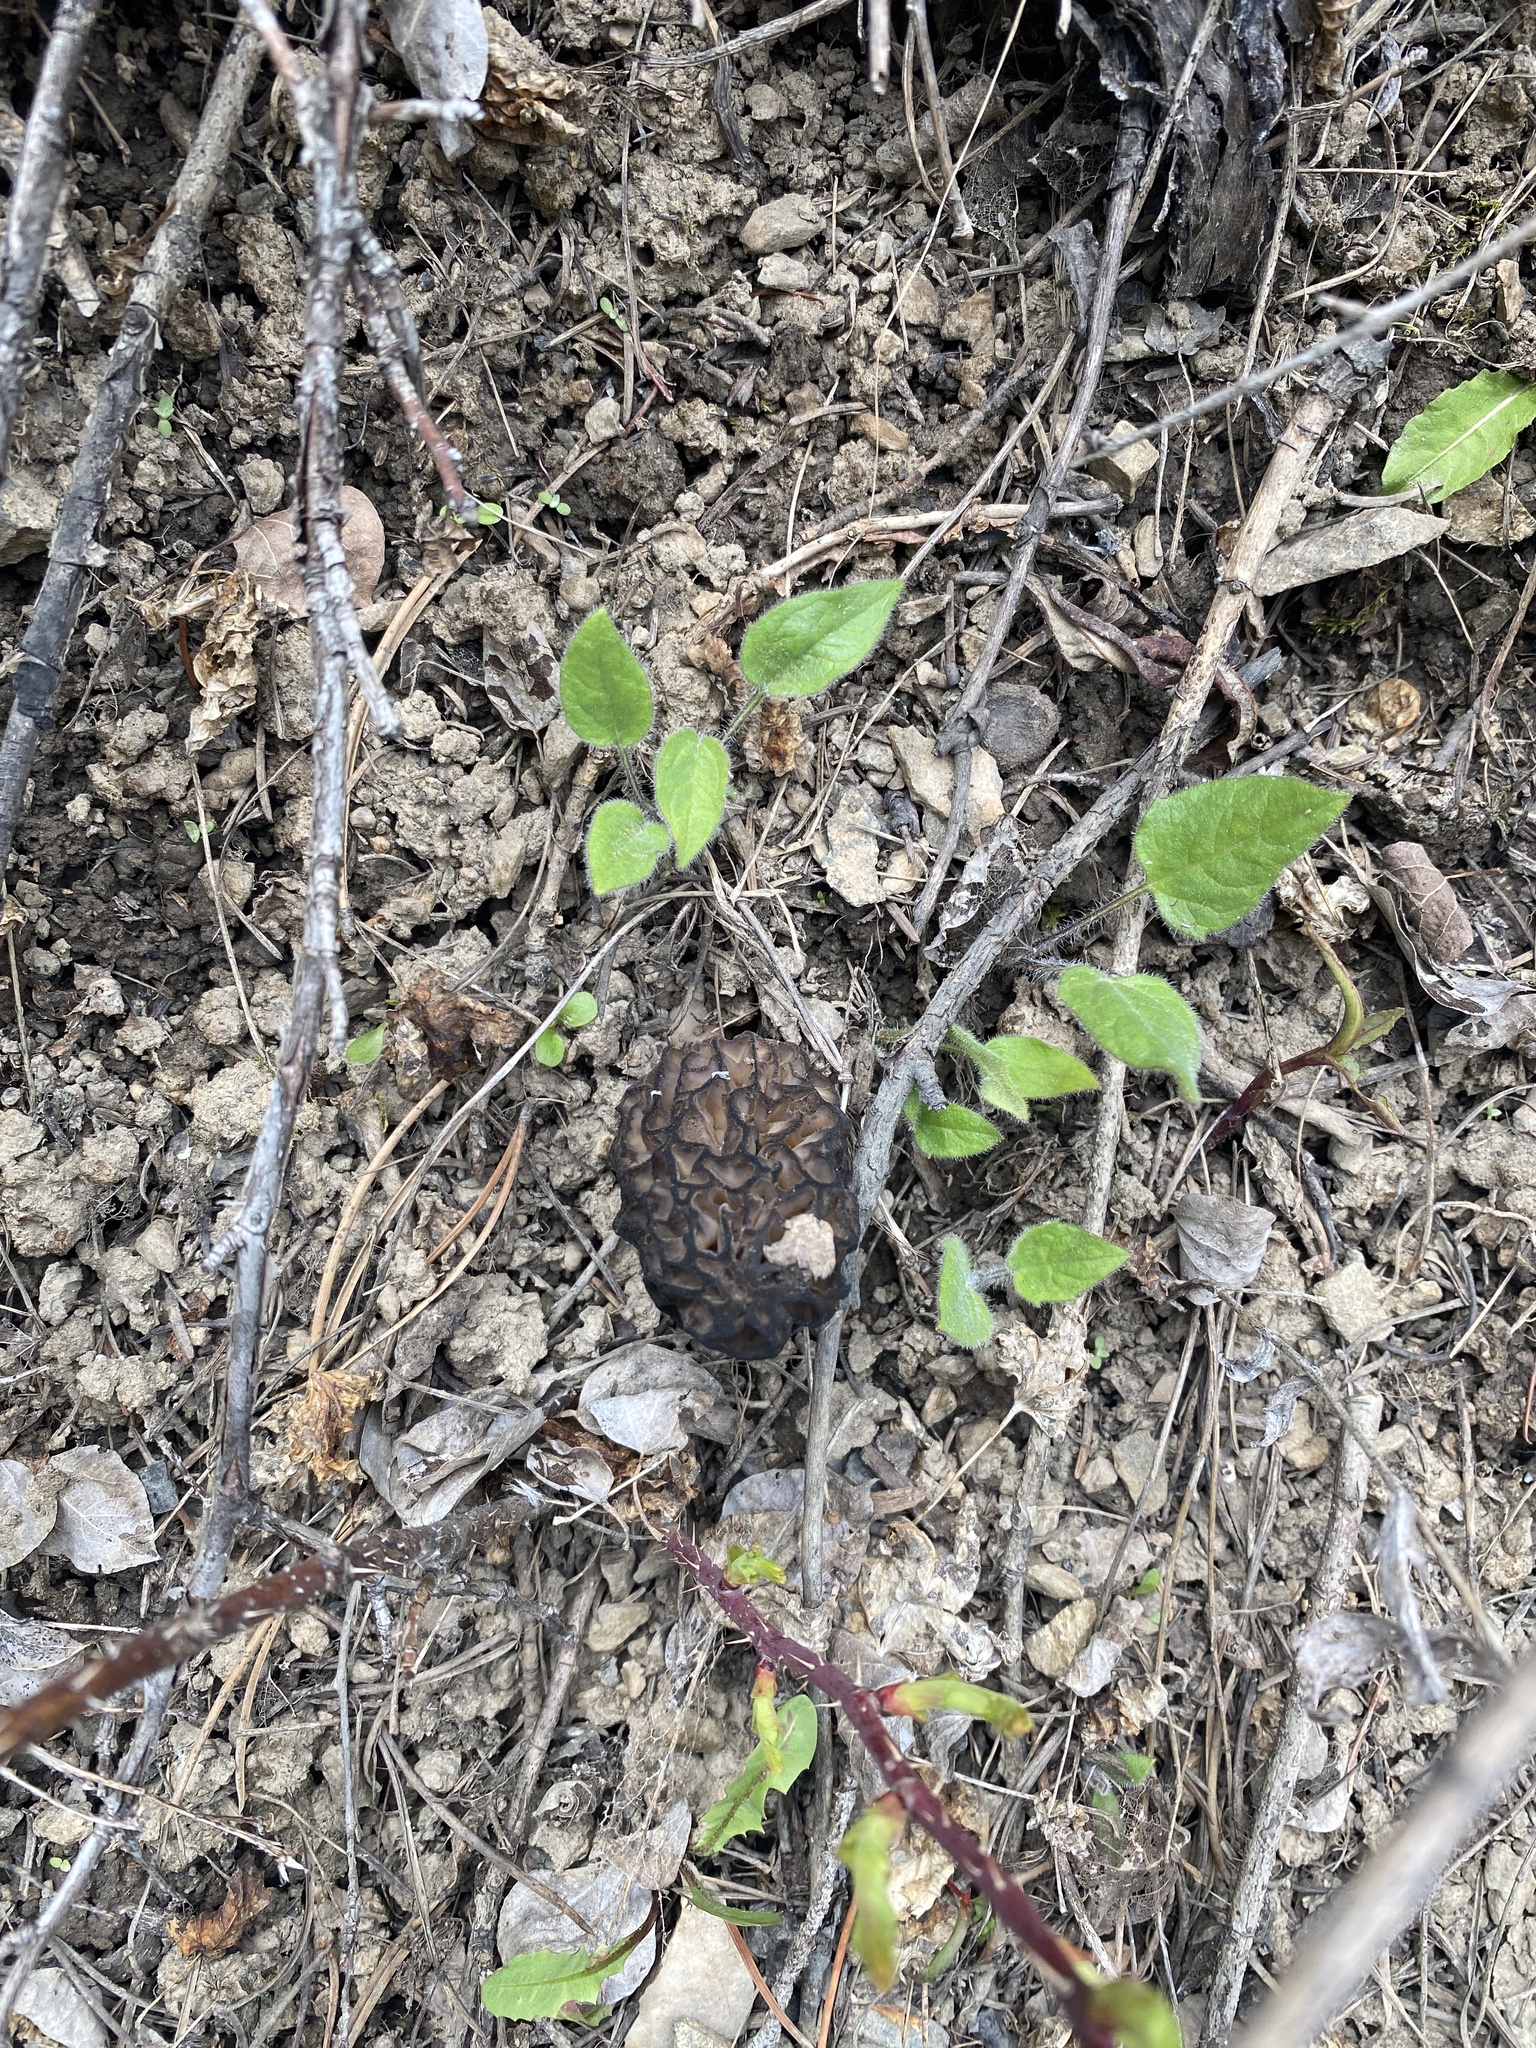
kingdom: Fungi
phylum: Ascomycota
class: Pezizomycetes
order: Pezizales
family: Morchellaceae
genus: Morchella
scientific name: Morchella snyderi
